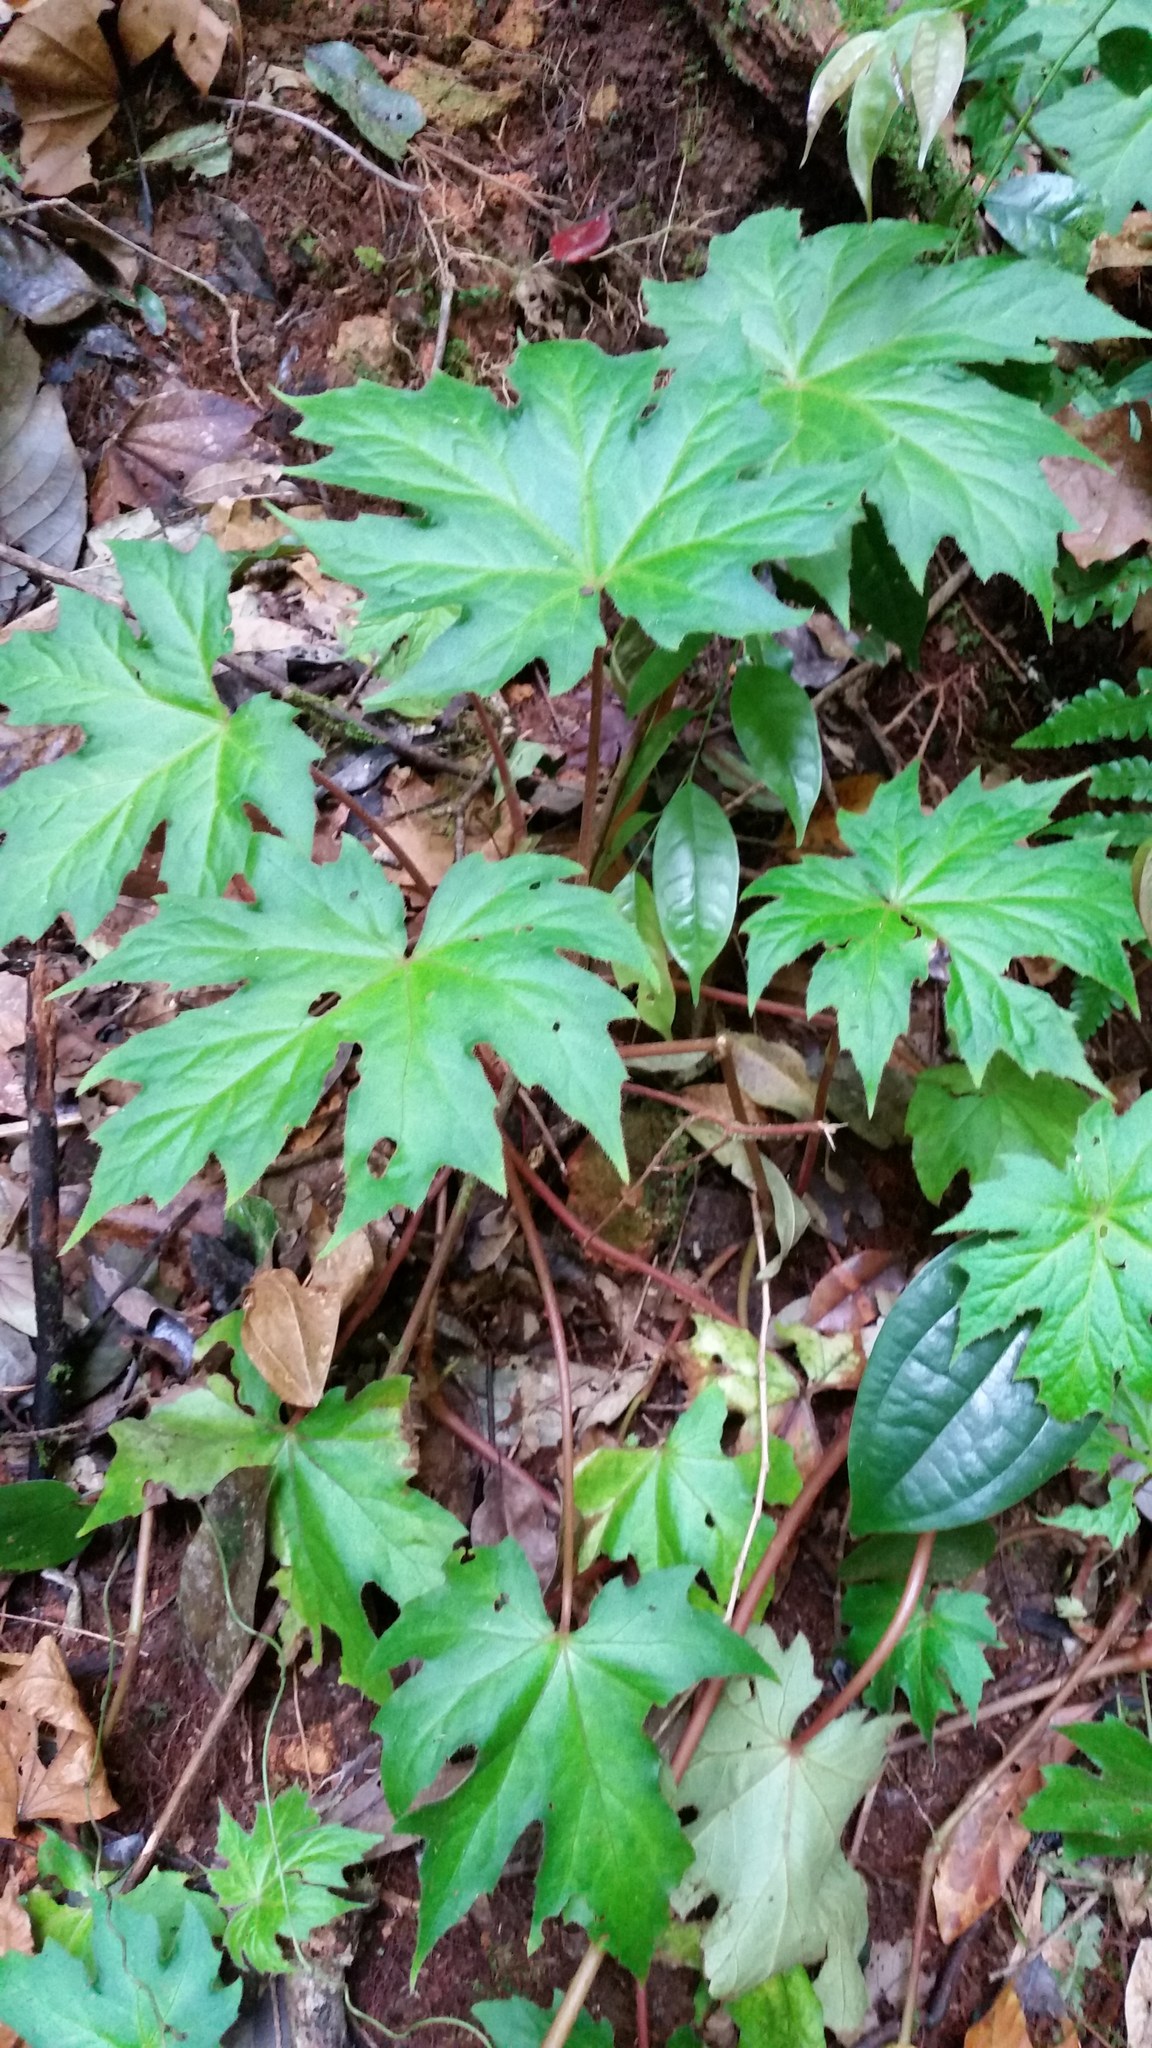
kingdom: Plantae
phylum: Tracheophyta
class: Magnoliopsida
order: Cucurbitales
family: Begoniaceae
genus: Begonia
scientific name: Begonia langbianensis
